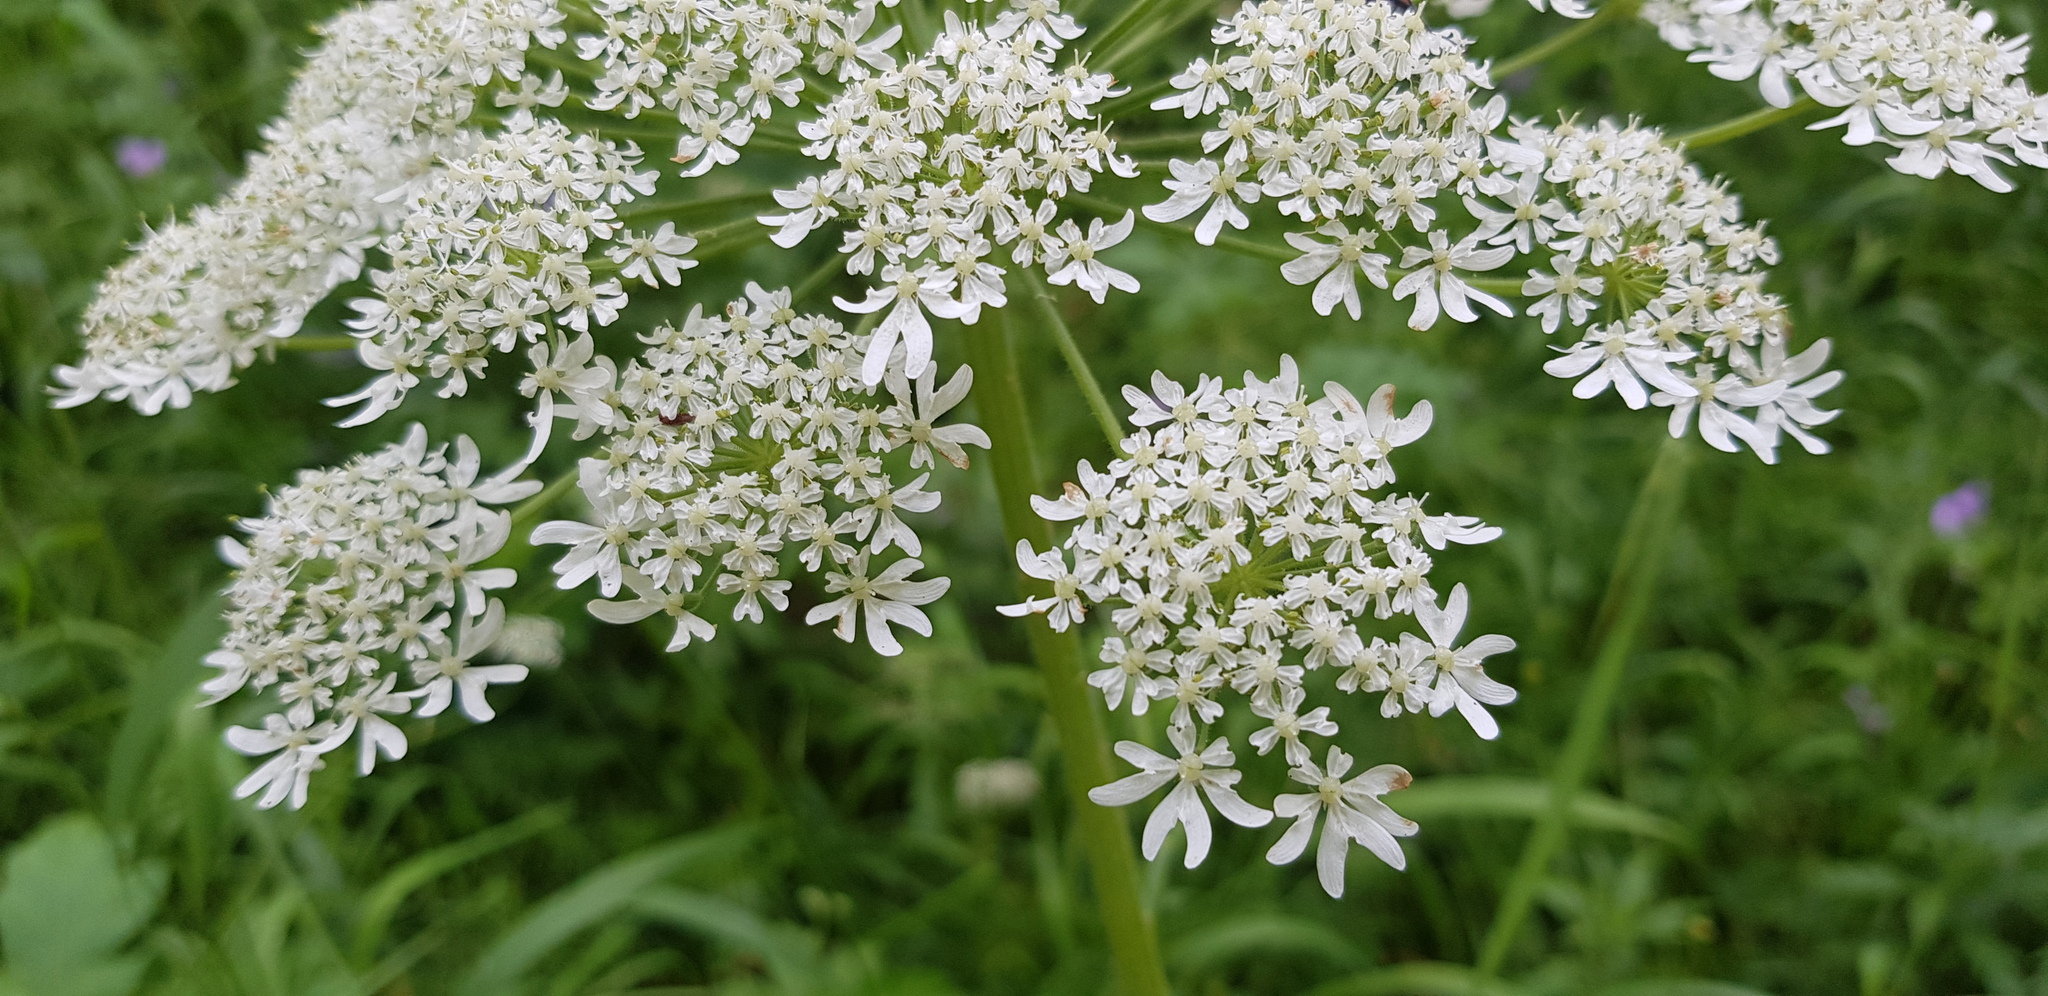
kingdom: Plantae
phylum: Tracheophyta
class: Magnoliopsida
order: Apiales
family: Apiaceae
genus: Heracleum
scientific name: Heracleum dissectum
